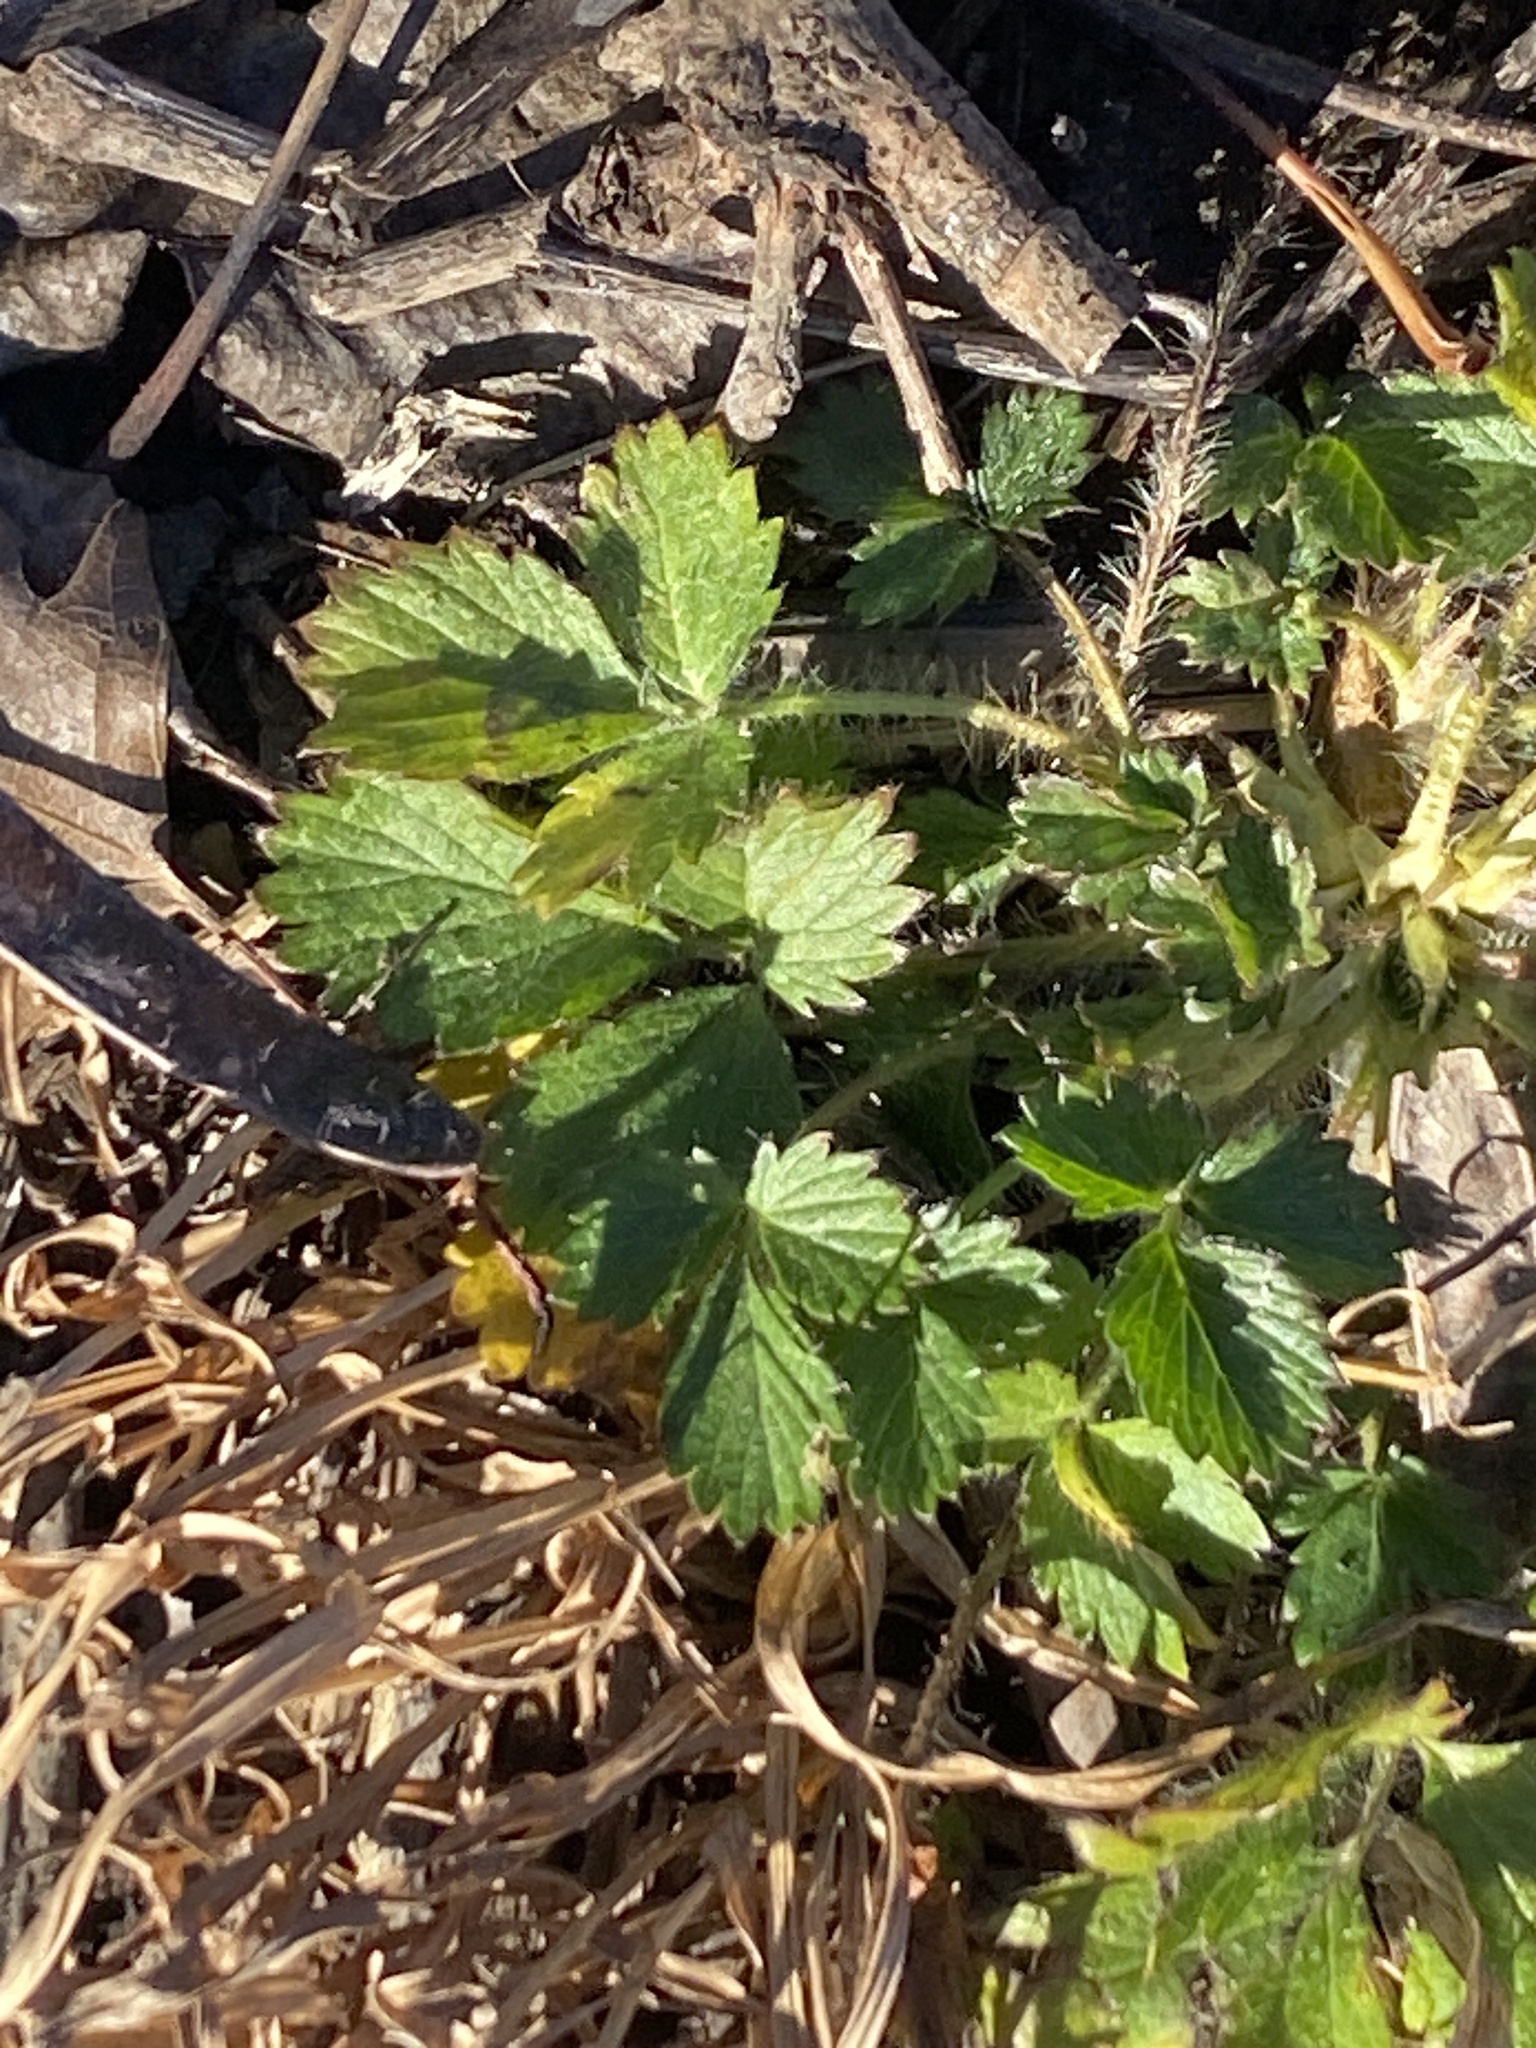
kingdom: Plantae
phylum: Tracheophyta
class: Magnoliopsida
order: Rosales
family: Rosaceae
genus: Potentilla
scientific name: Potentilla norvegica
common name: Ternate-leaved cinquefoil
